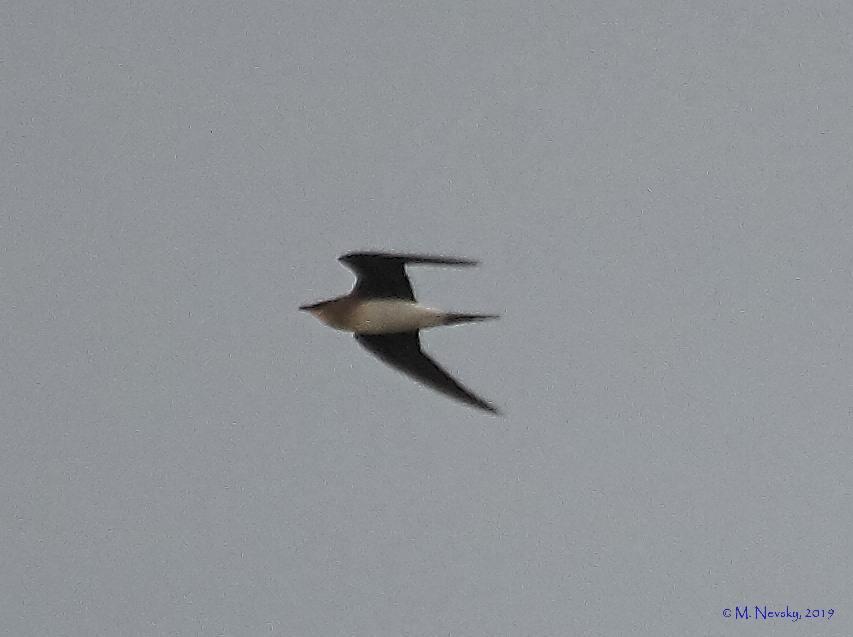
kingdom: Animalia
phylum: Chordata
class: Aves
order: Charadriiformes
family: Glareolidae
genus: Glareola
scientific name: Glareola nordmanni
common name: Black-winged pratincole
